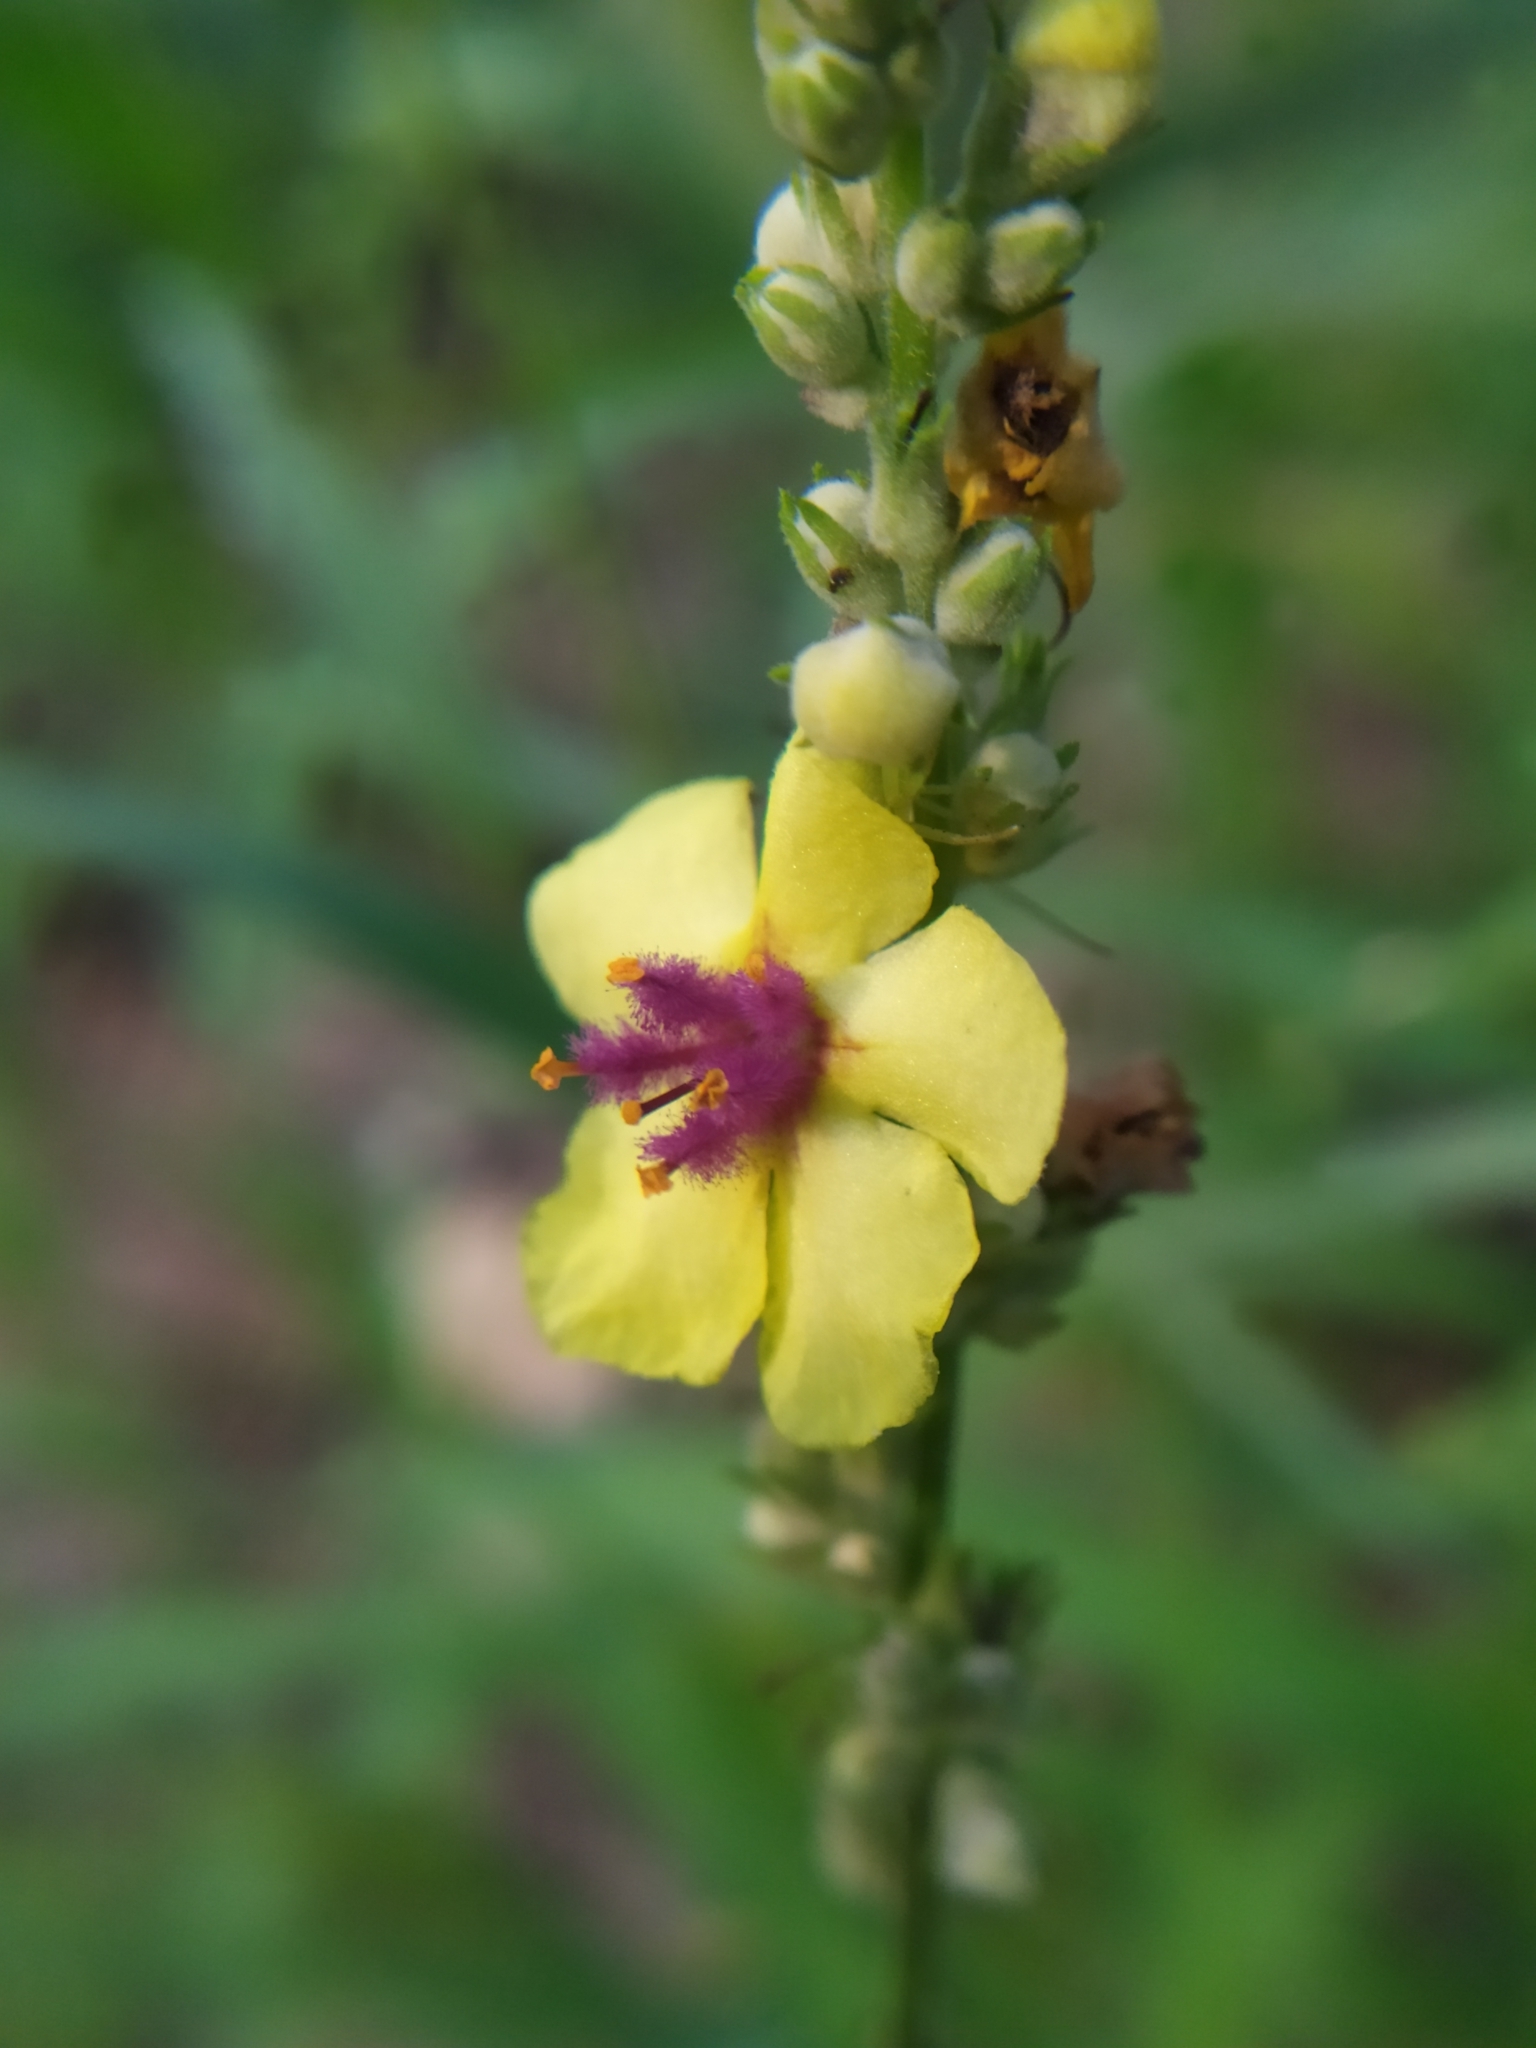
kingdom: Plantae
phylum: Tracheophyta
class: Magnoliopsida
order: Lamiales
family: Scrophulariaceae
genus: Verbascum
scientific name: Verbascum chaixii
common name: Nettle-leaved mullein
